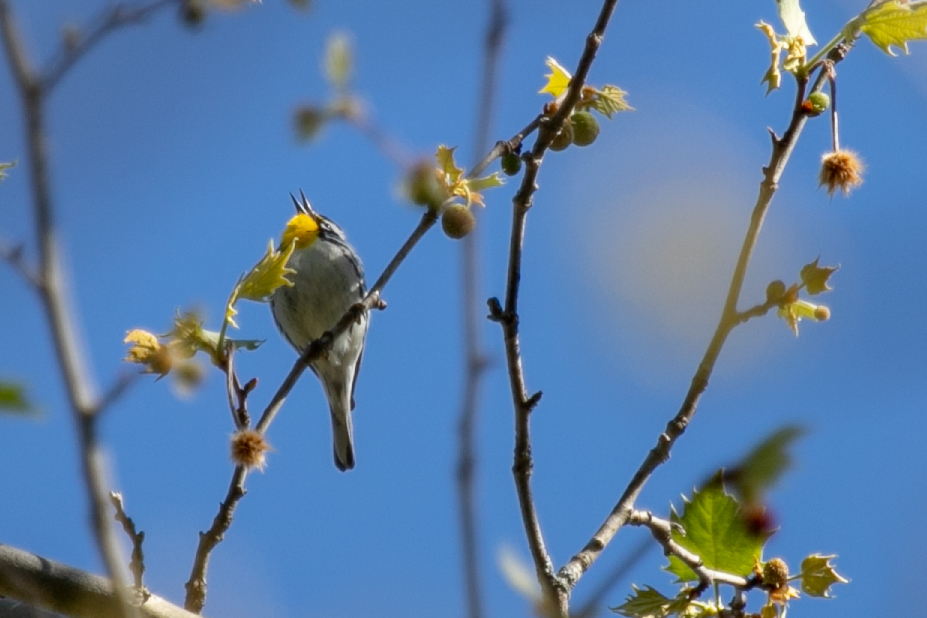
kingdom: Animalia
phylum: Chordata
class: Aves
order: Passeriformes
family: Parulidae
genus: Setophaga
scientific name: Setophaga dominica
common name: Yellow-throated warbler
